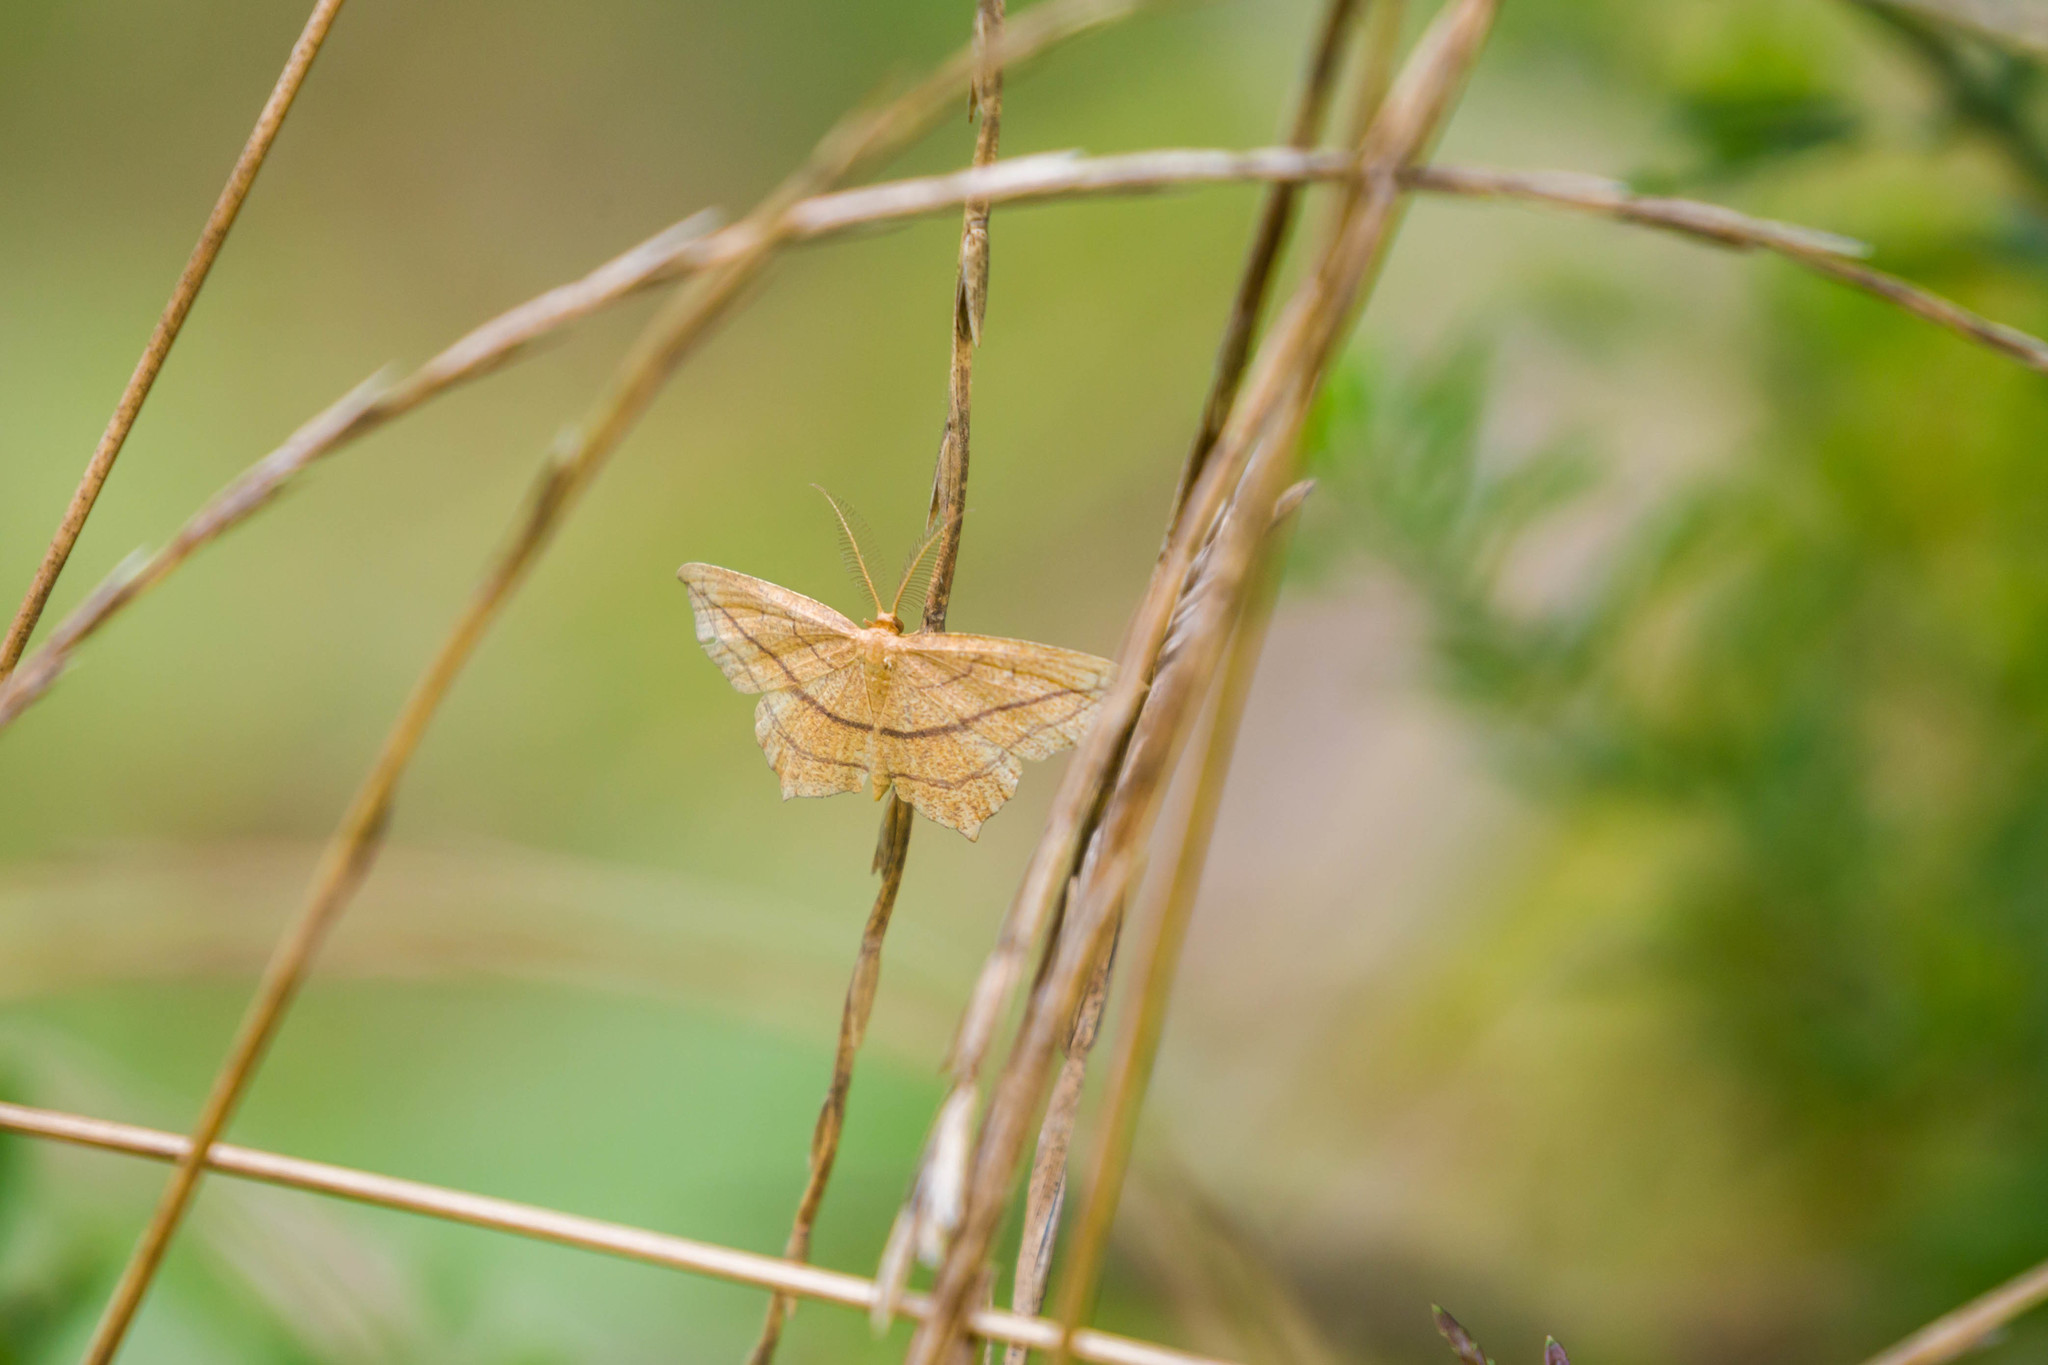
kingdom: Animalia
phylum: Arthropoda
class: Insecta
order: Lepidoptera
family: Geometridae
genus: Timandra
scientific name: Timandra amaturaria
